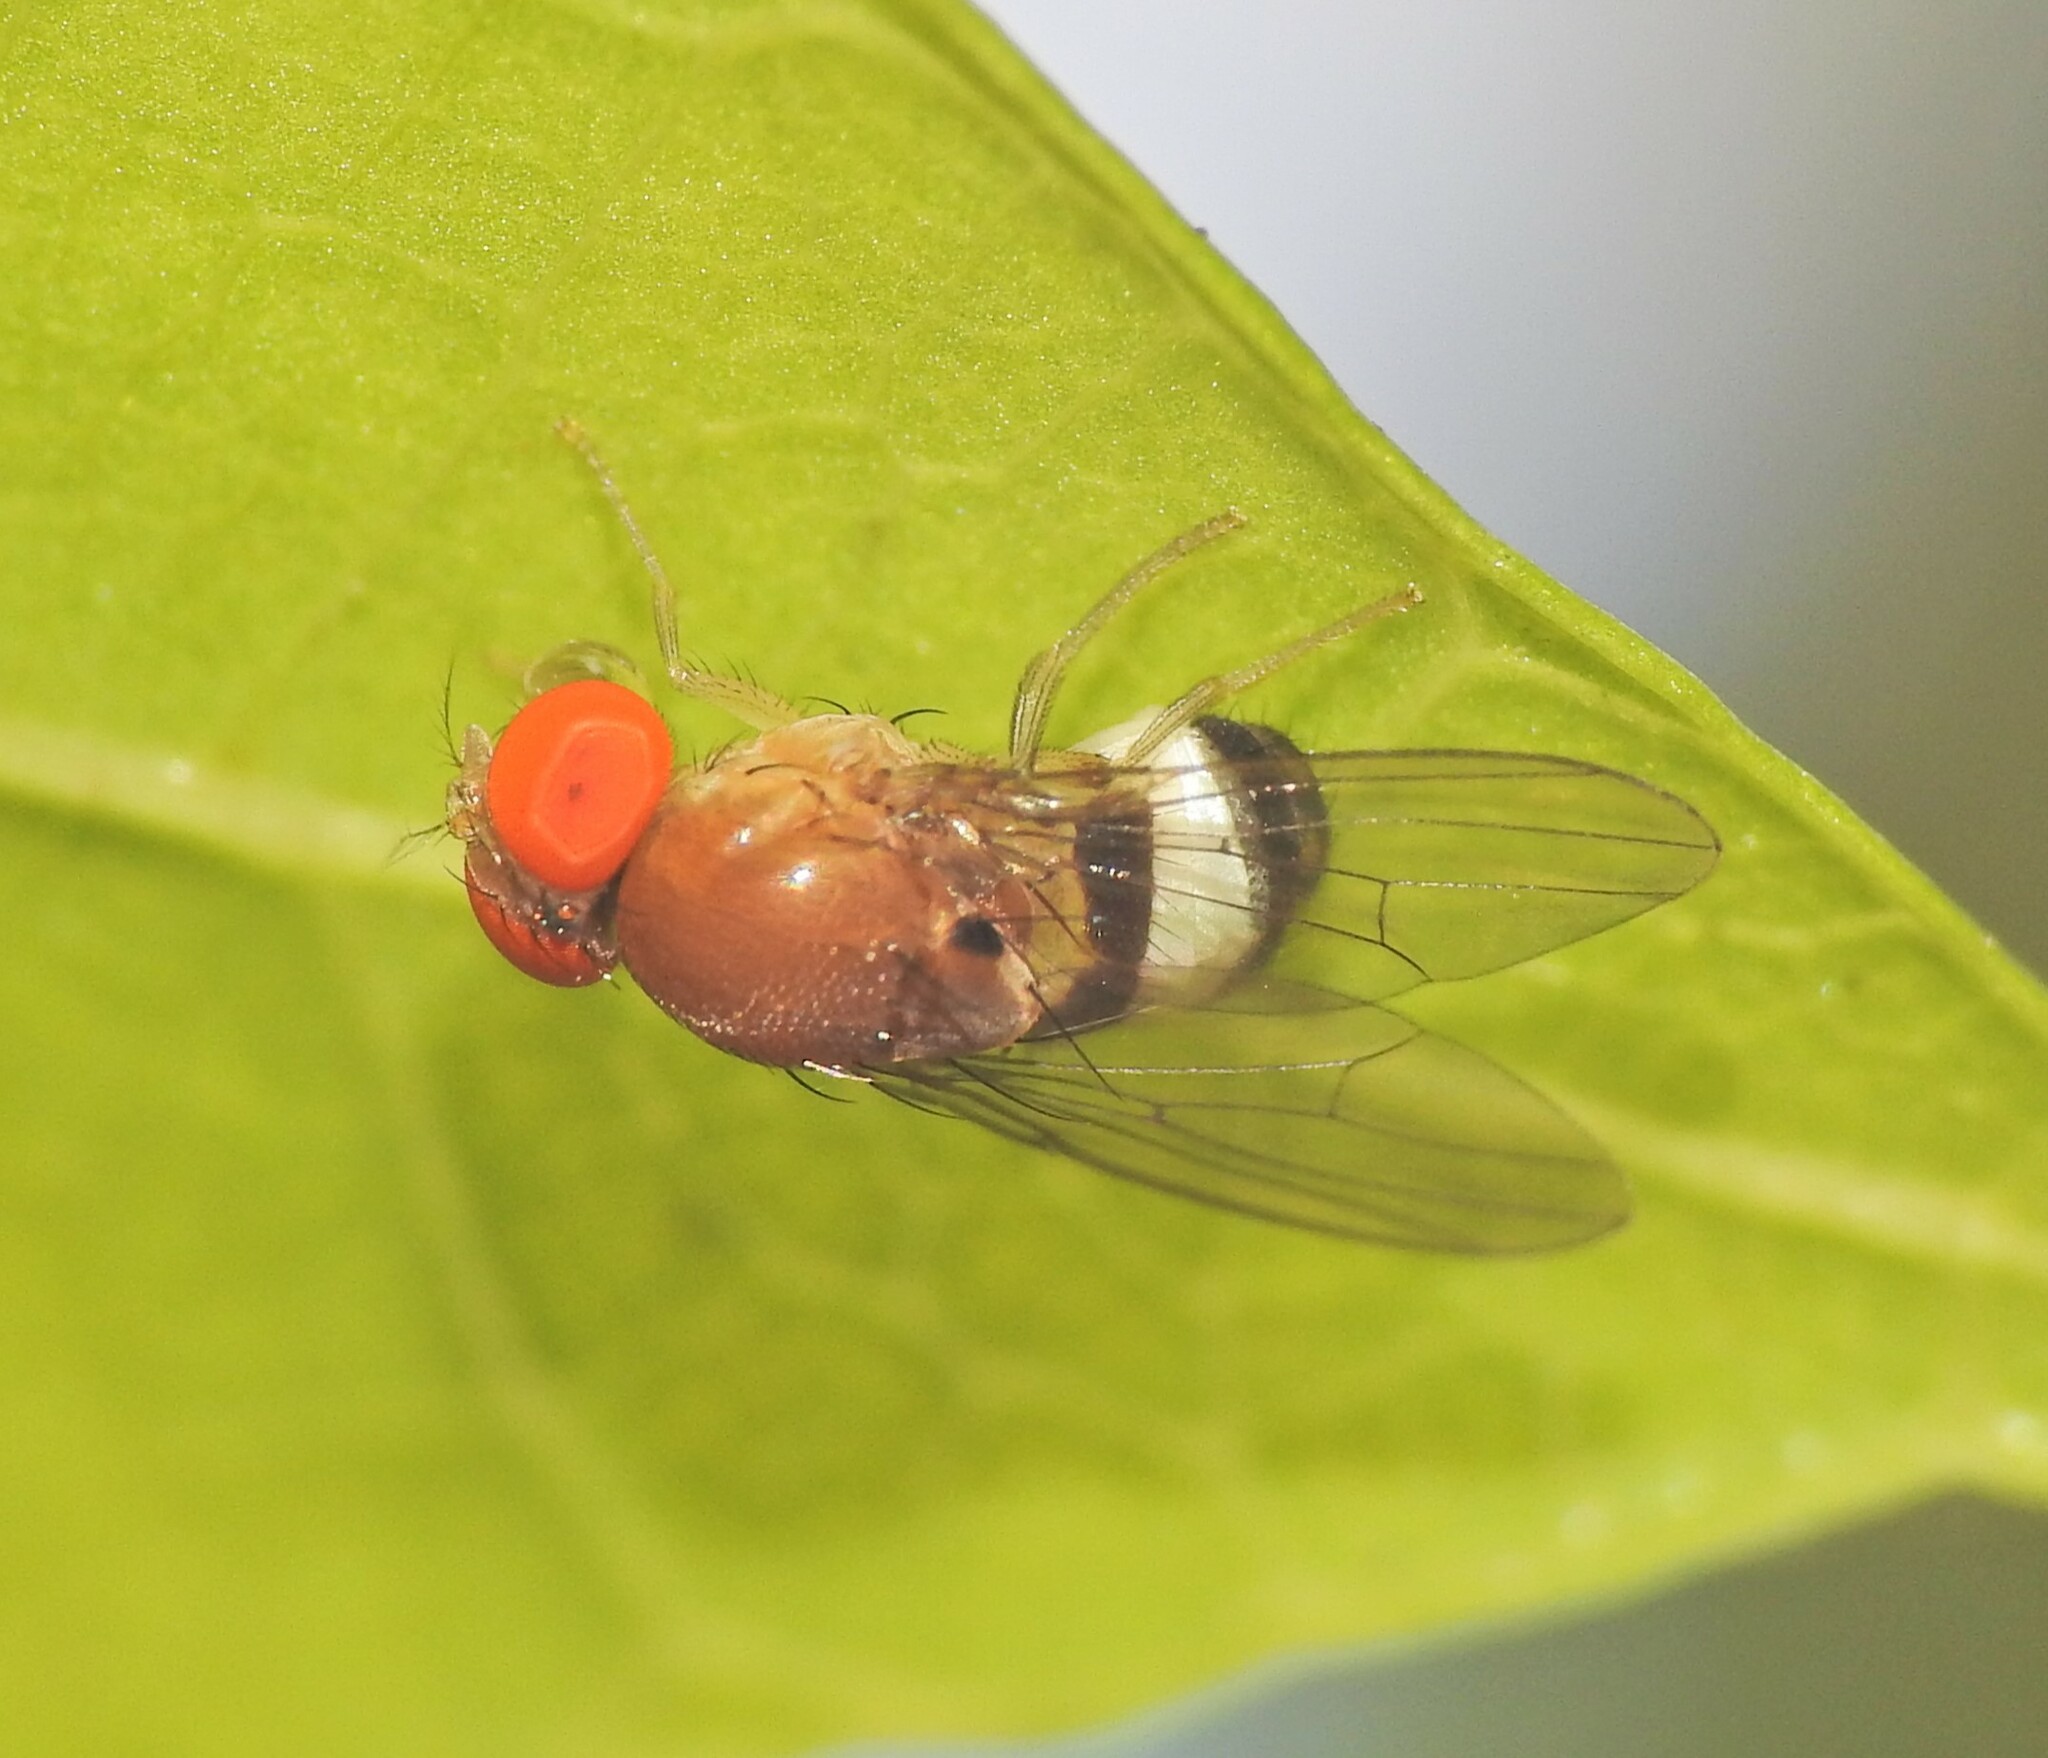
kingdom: Animalia
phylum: Arthropoda
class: Insecta
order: Diptera
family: Drosophilidae
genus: Leucophenga
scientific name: Leucophenga scutellata
